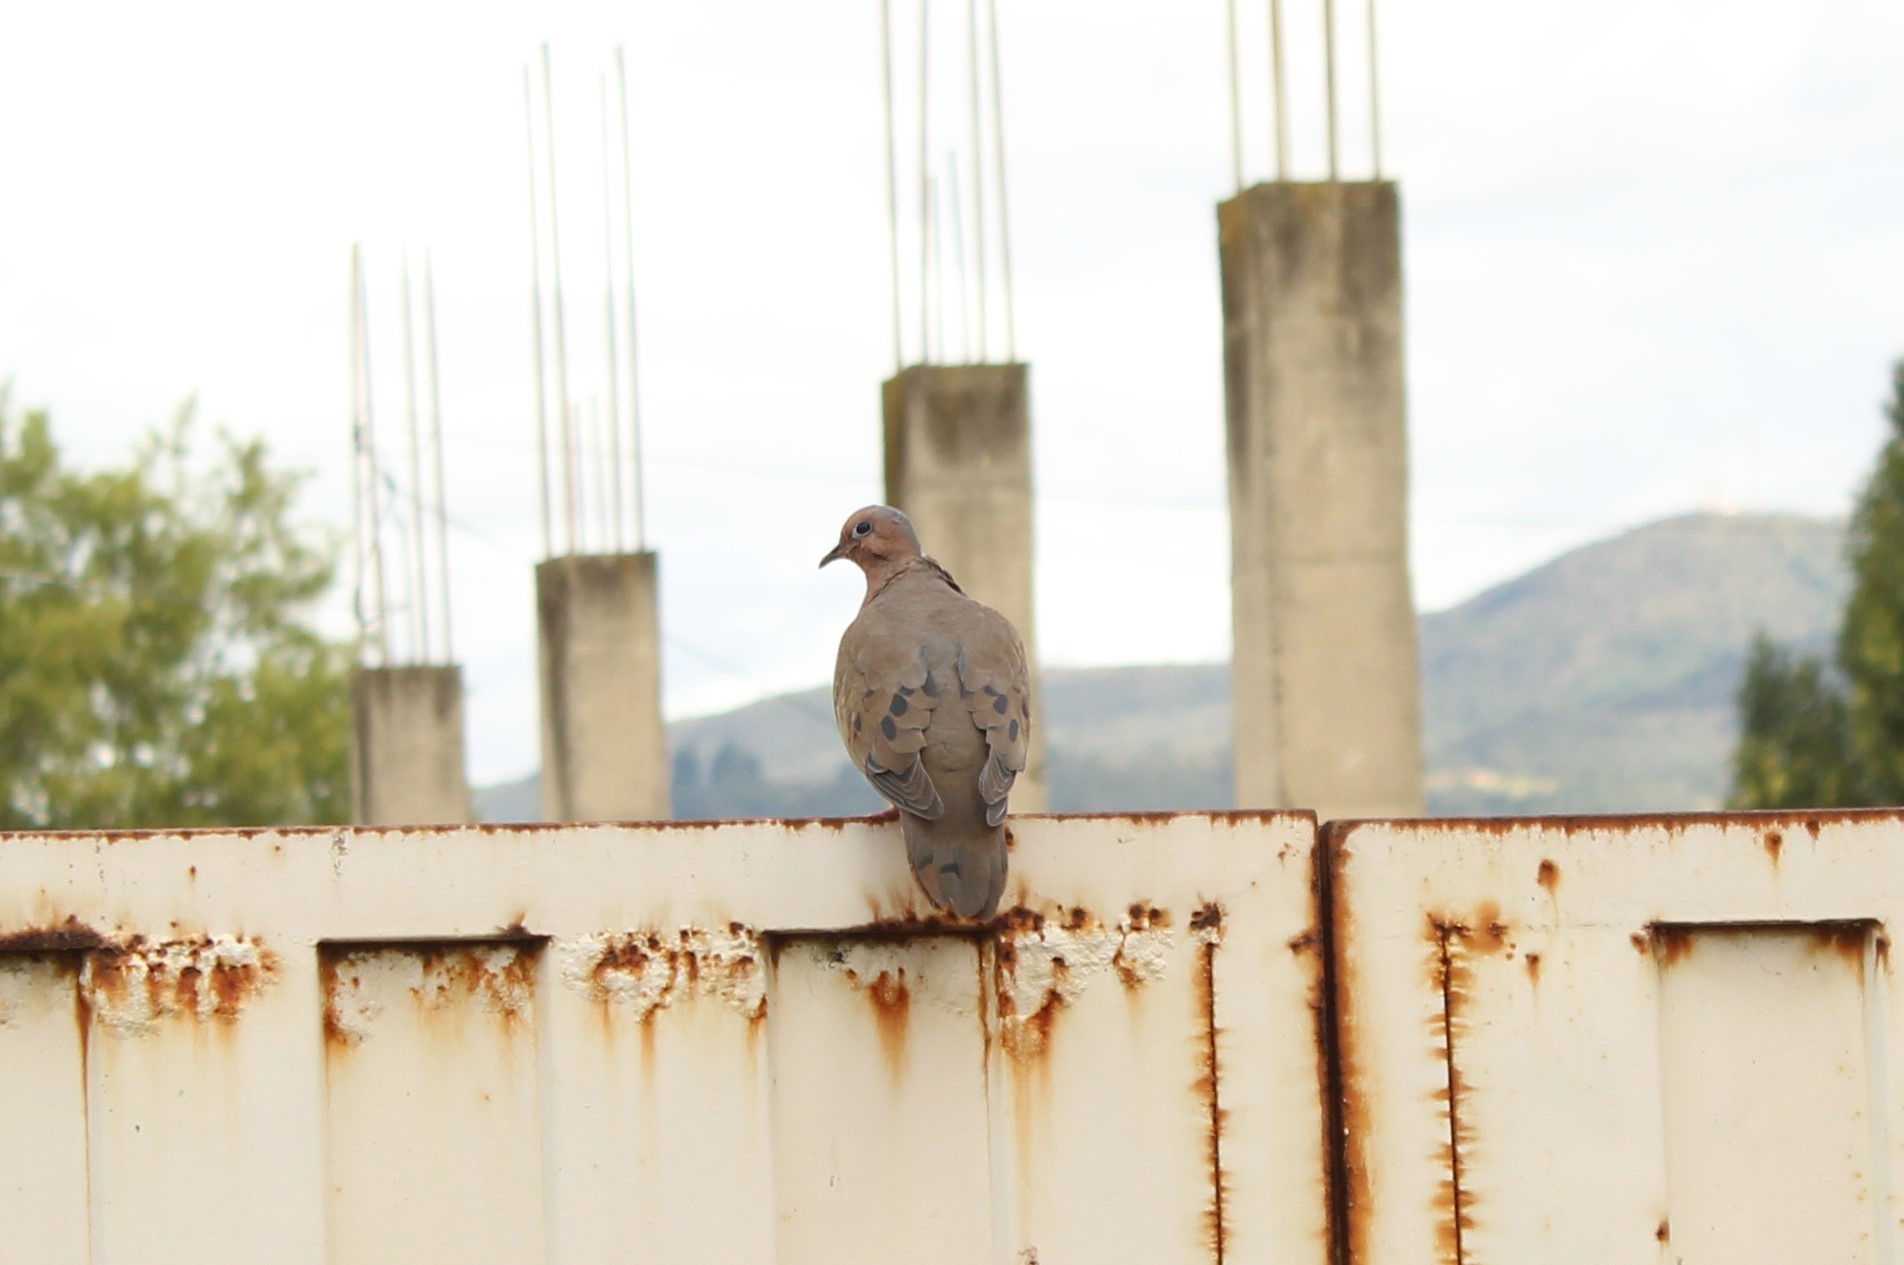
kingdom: Animalia
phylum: Chordata
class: Aves
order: Columbiformes
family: Columbidae
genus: Zenaida
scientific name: Zenaida auriculata
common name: Eared dove
